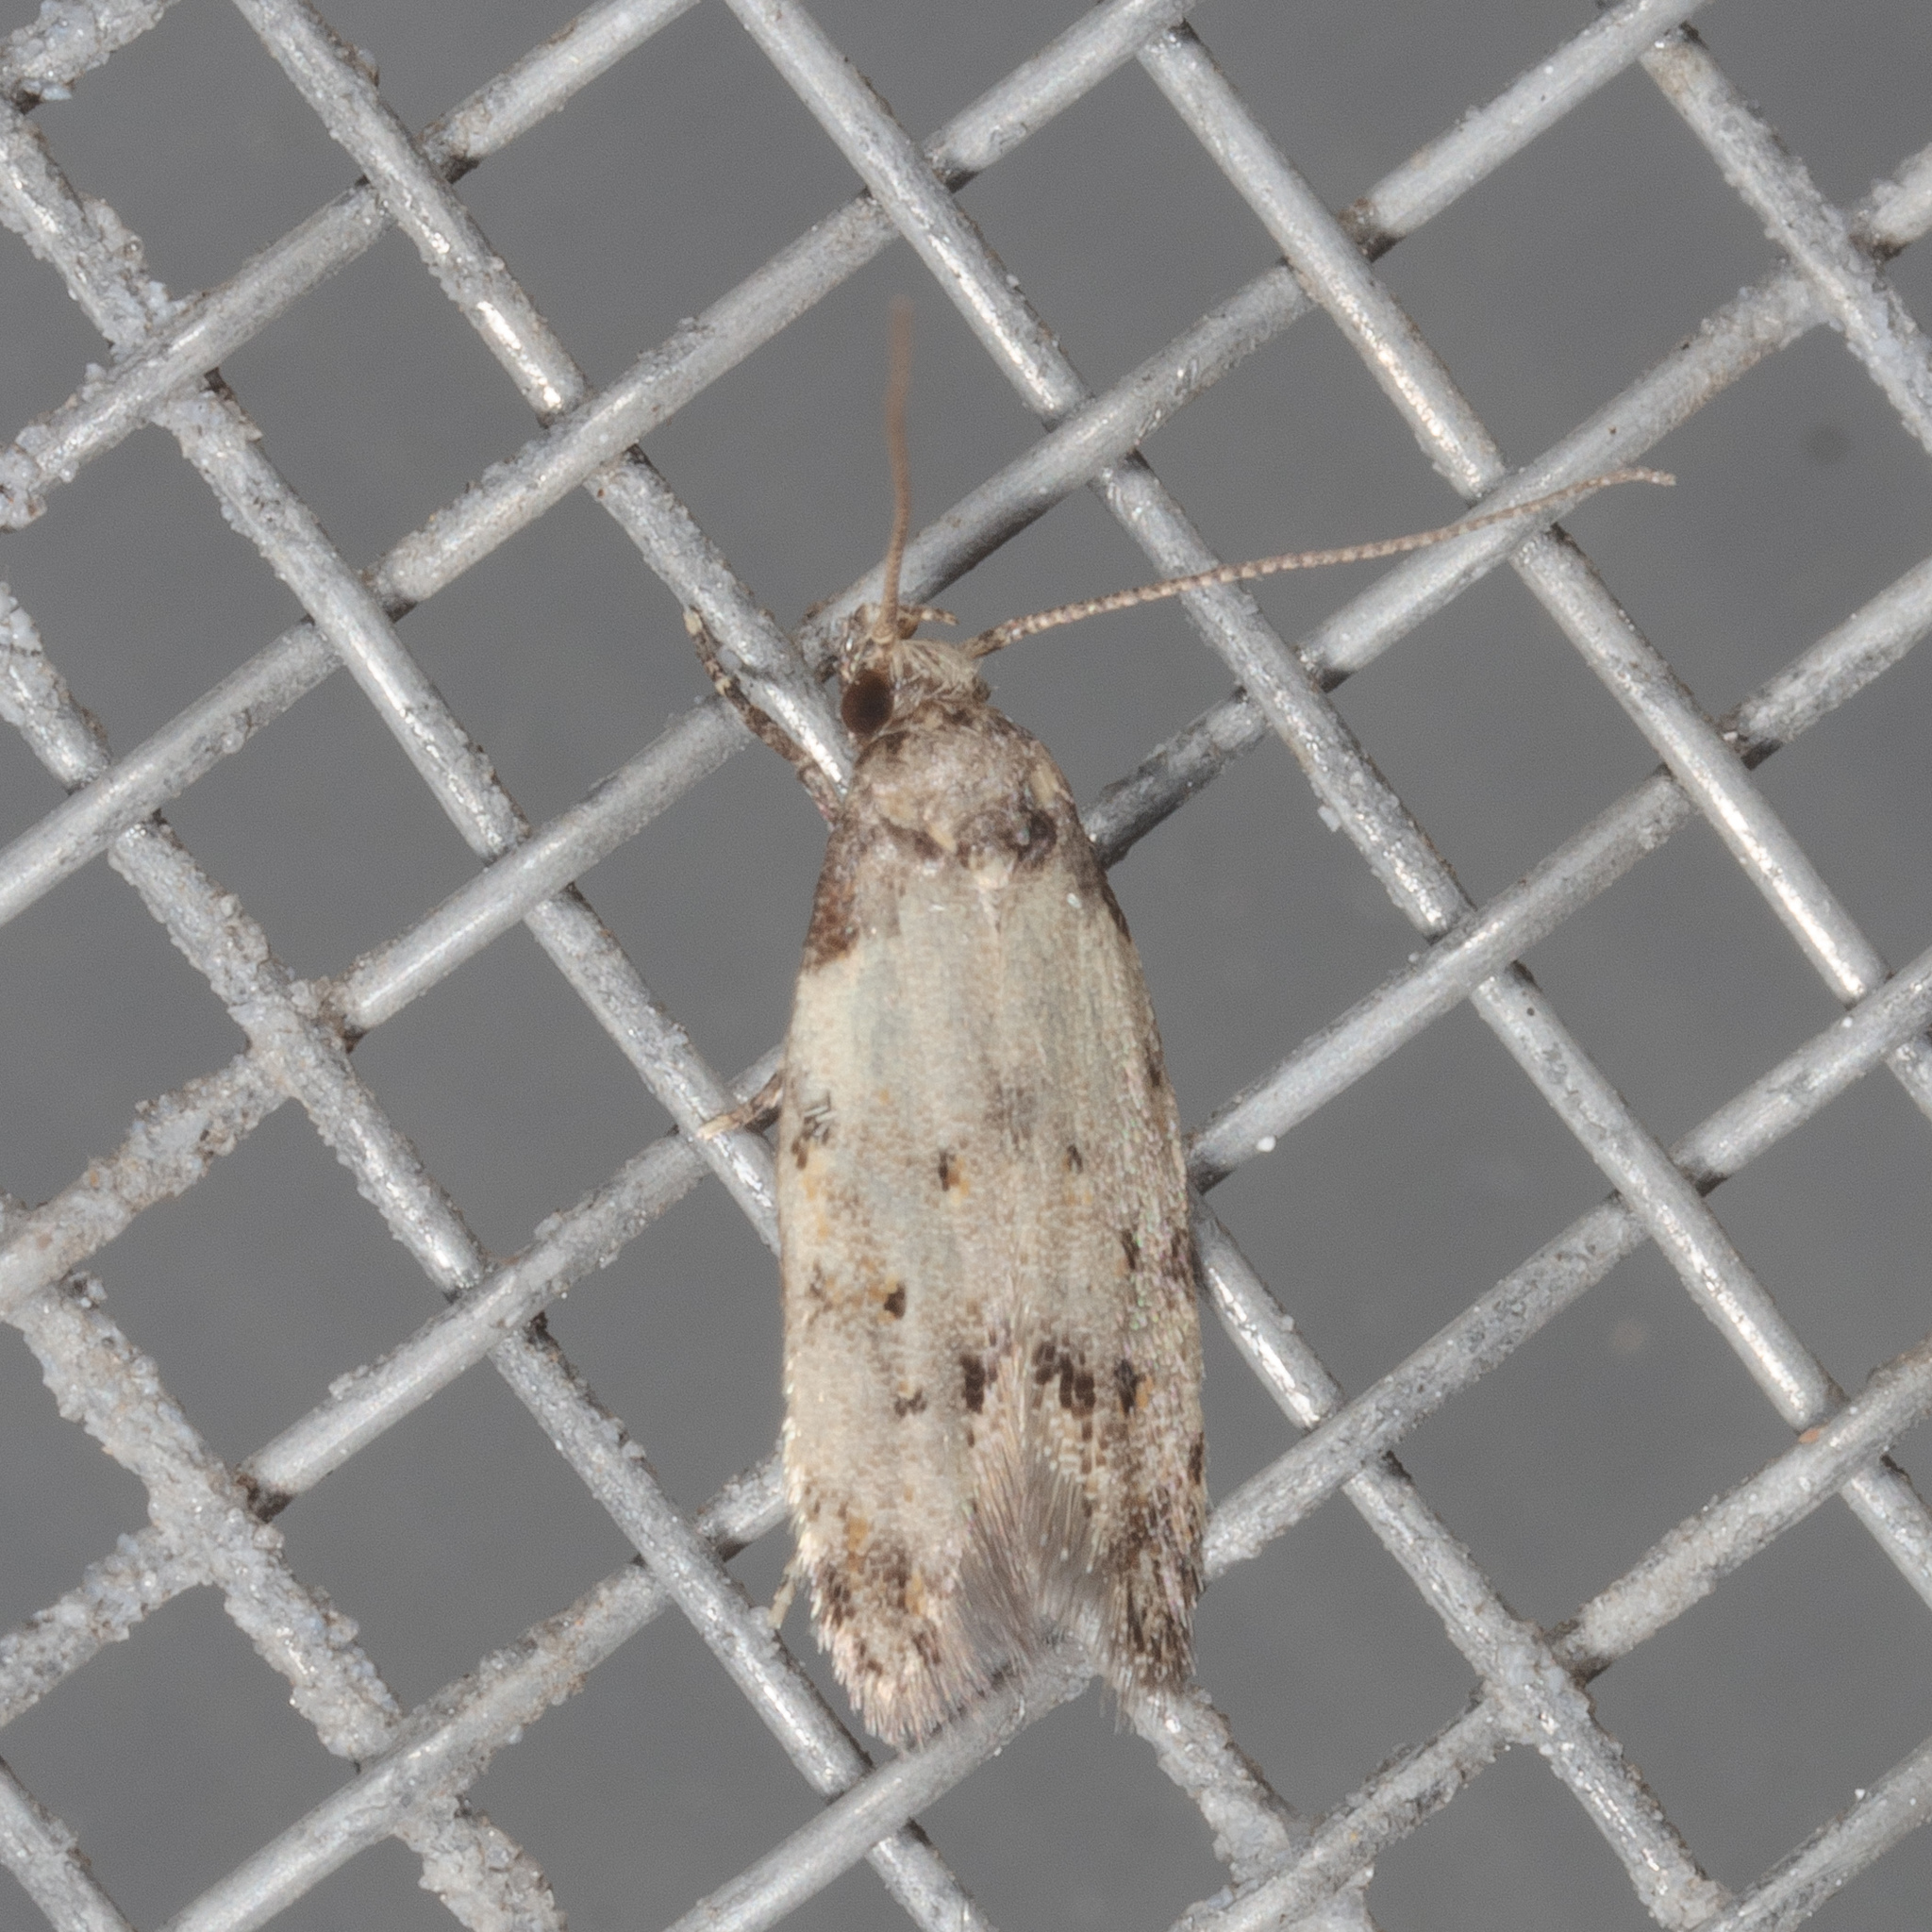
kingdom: Animalia
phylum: Arthropoda
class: Insecta
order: Lepidoptera
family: Autostichidae
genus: Taygete
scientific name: Taygete attributella
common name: Triangle-marked twirler moth
